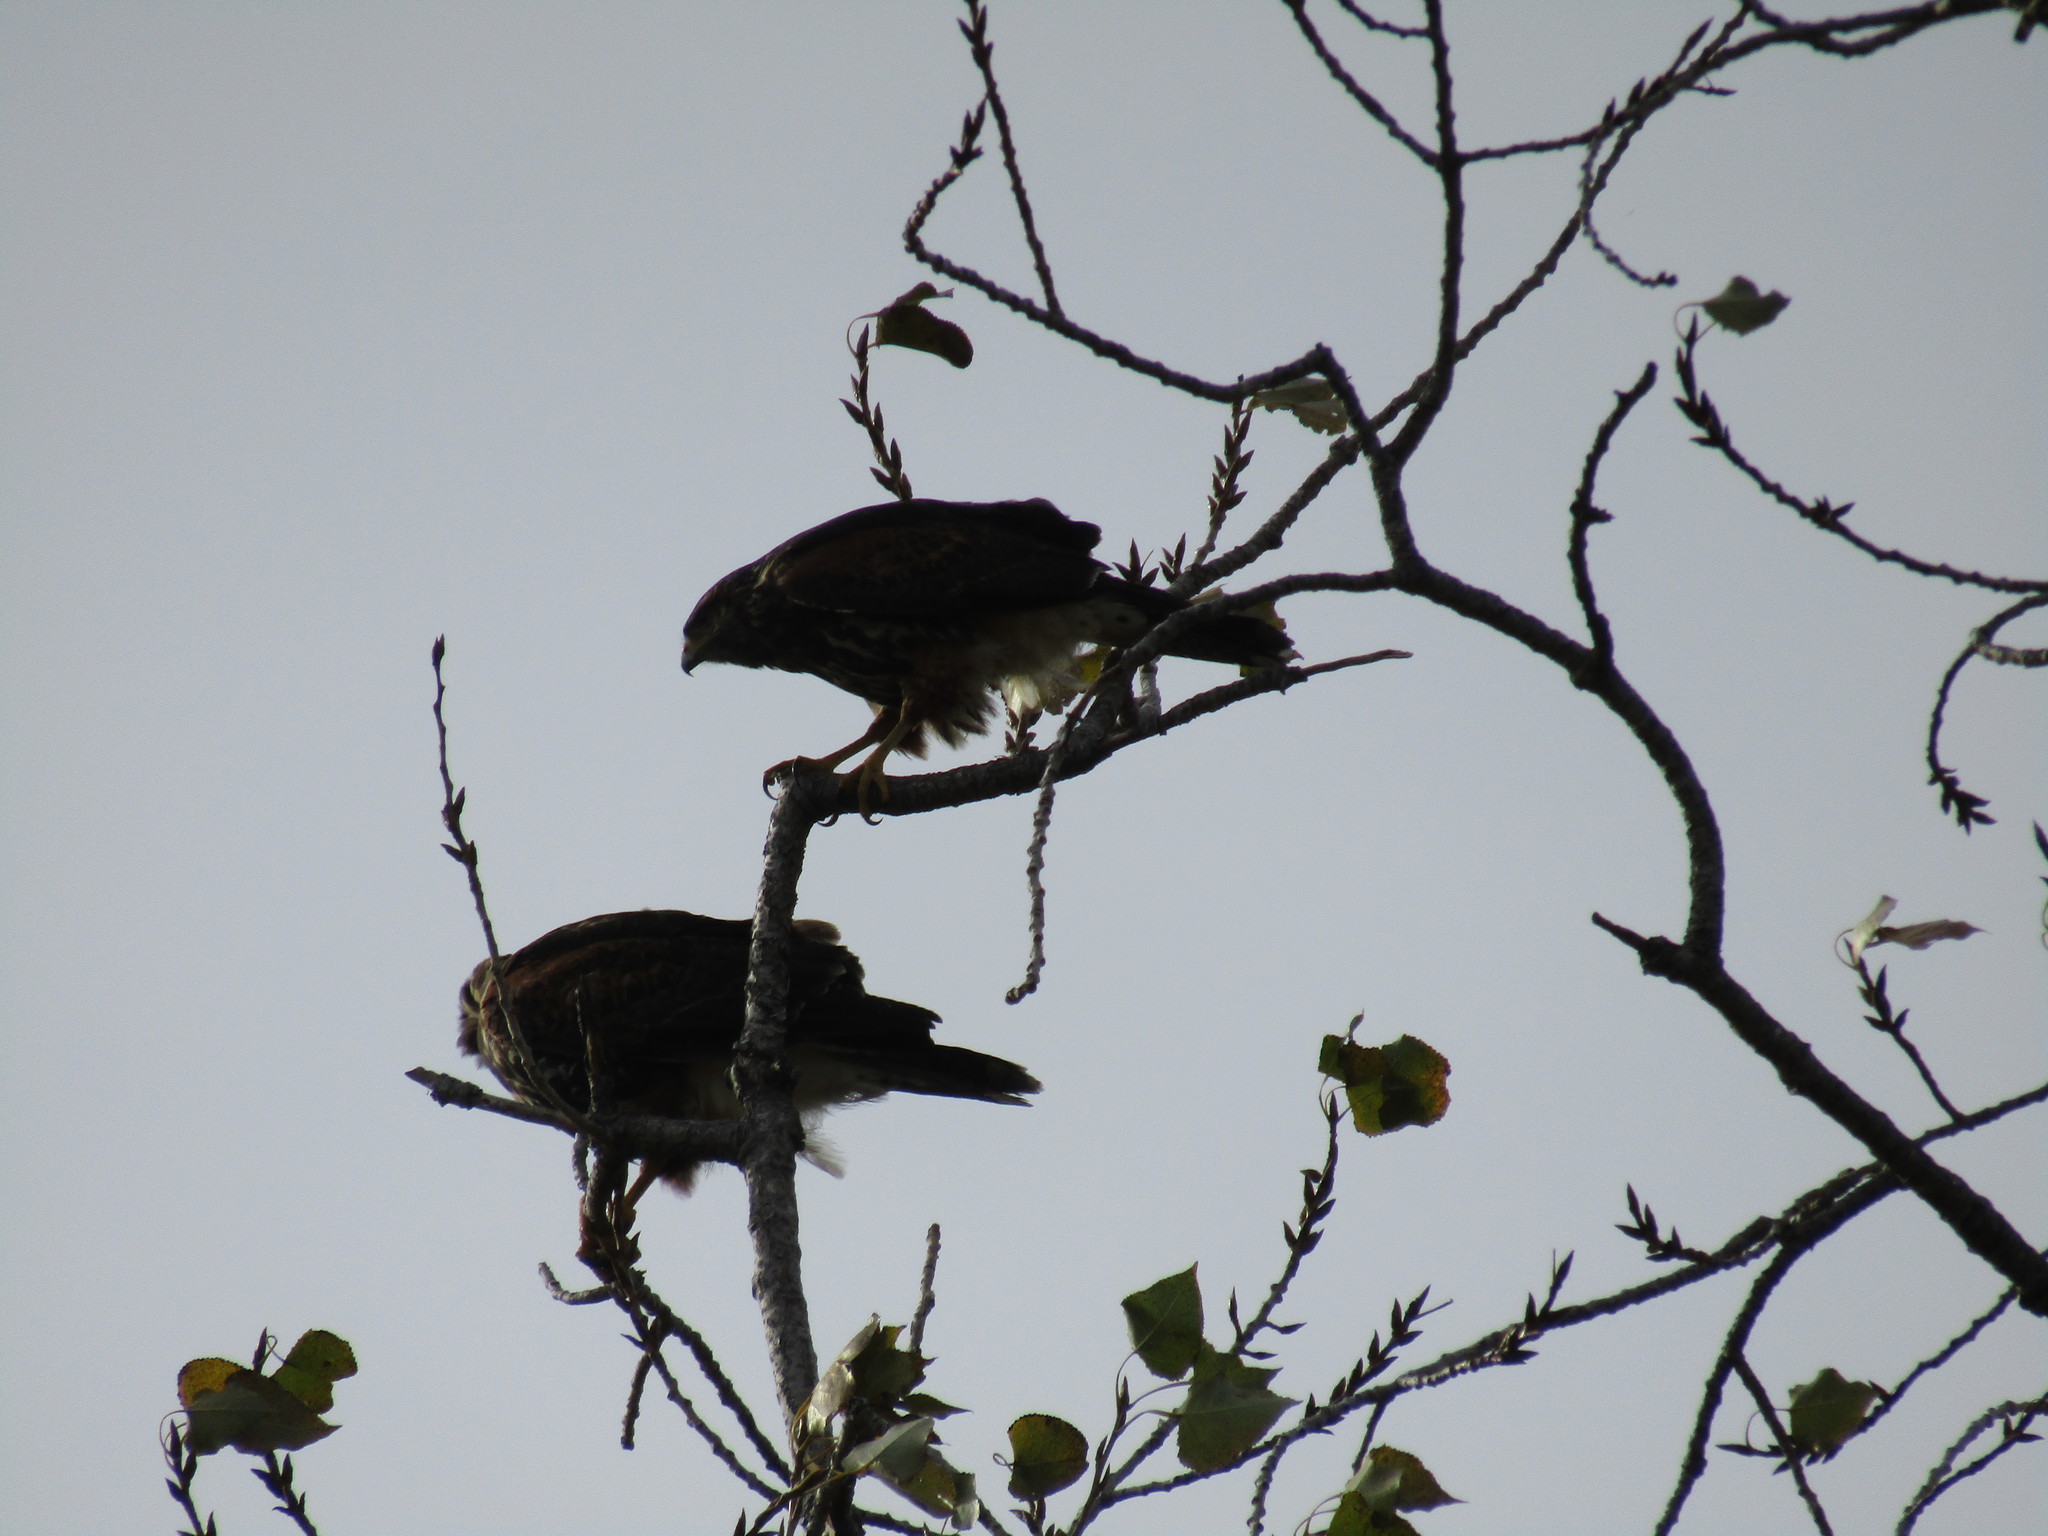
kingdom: Animalia
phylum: Chordata
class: Aves
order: Accipitriformes
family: Accipitridae
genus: Parabuteo
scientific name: Parabuteo unicinctus
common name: Harris's hawk
